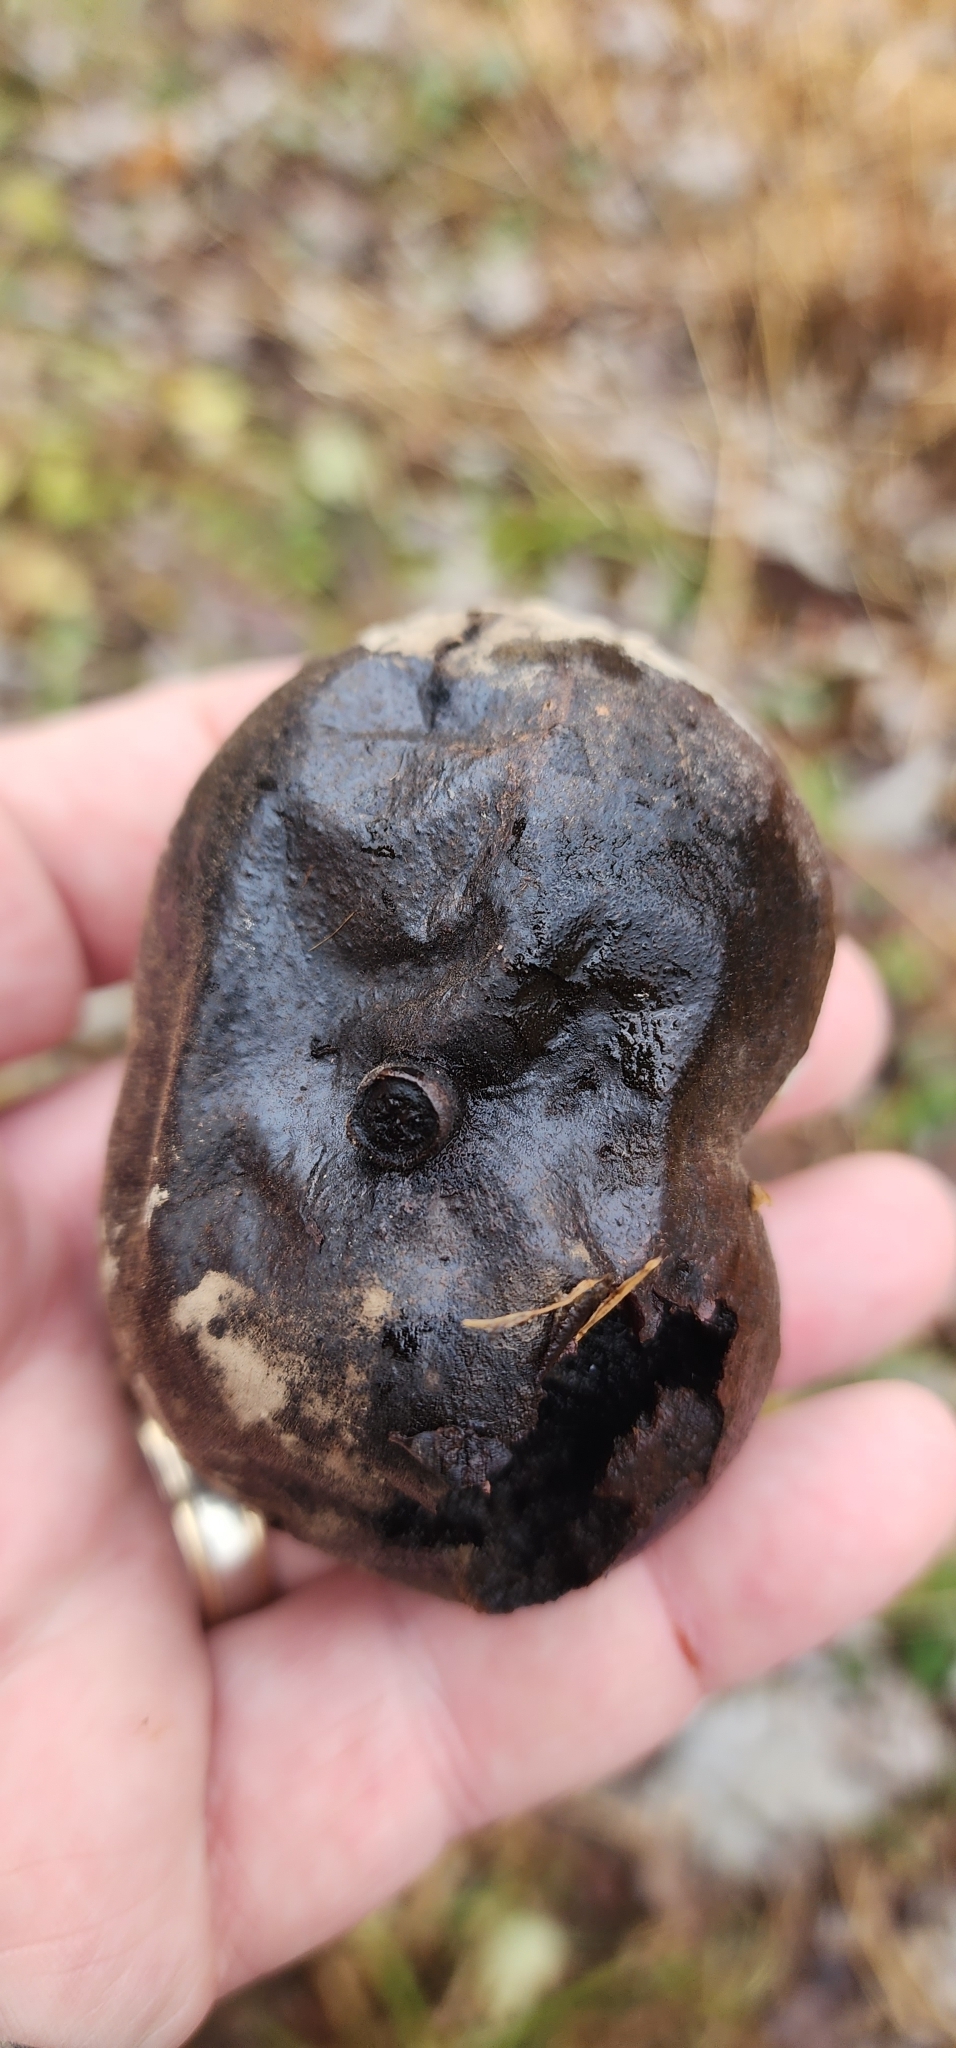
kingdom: Plantae
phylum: Tracheophyta
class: Magnoliopsida
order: Fagales
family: Juglandaceae
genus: Juglans
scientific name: Juglans nigra
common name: Black walnut
